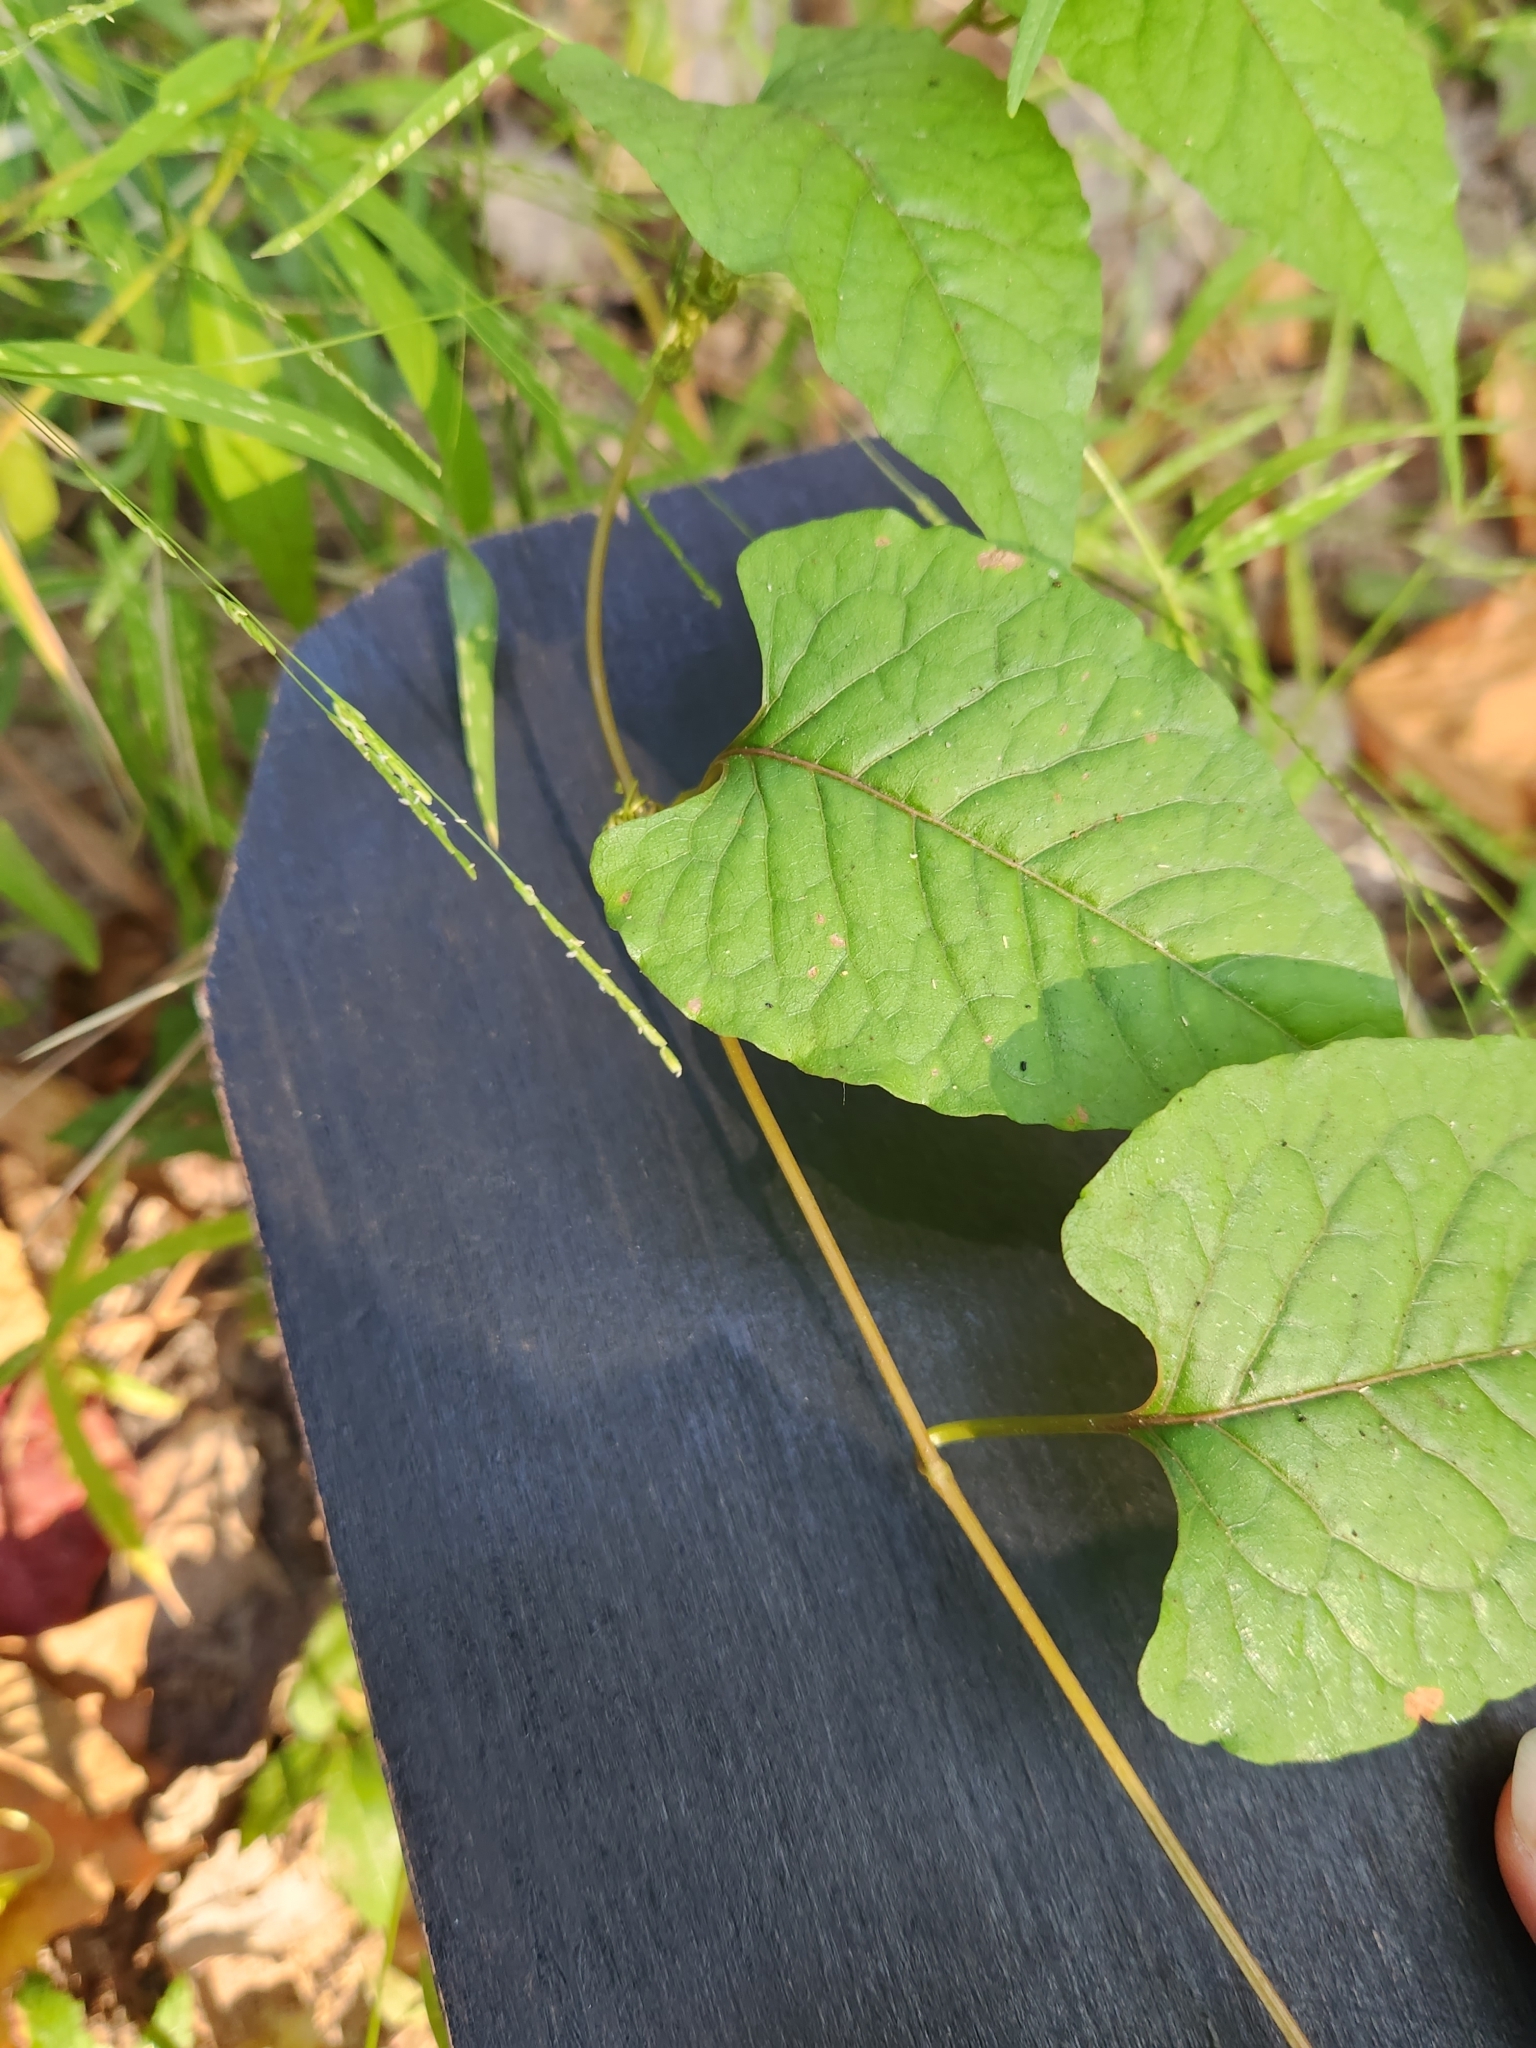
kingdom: Plantae
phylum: Tracheophyta
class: Magnoliopsida
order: Caryophyllales
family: Polygonaceae
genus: Brunnichia
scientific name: Brunnichia ovata
